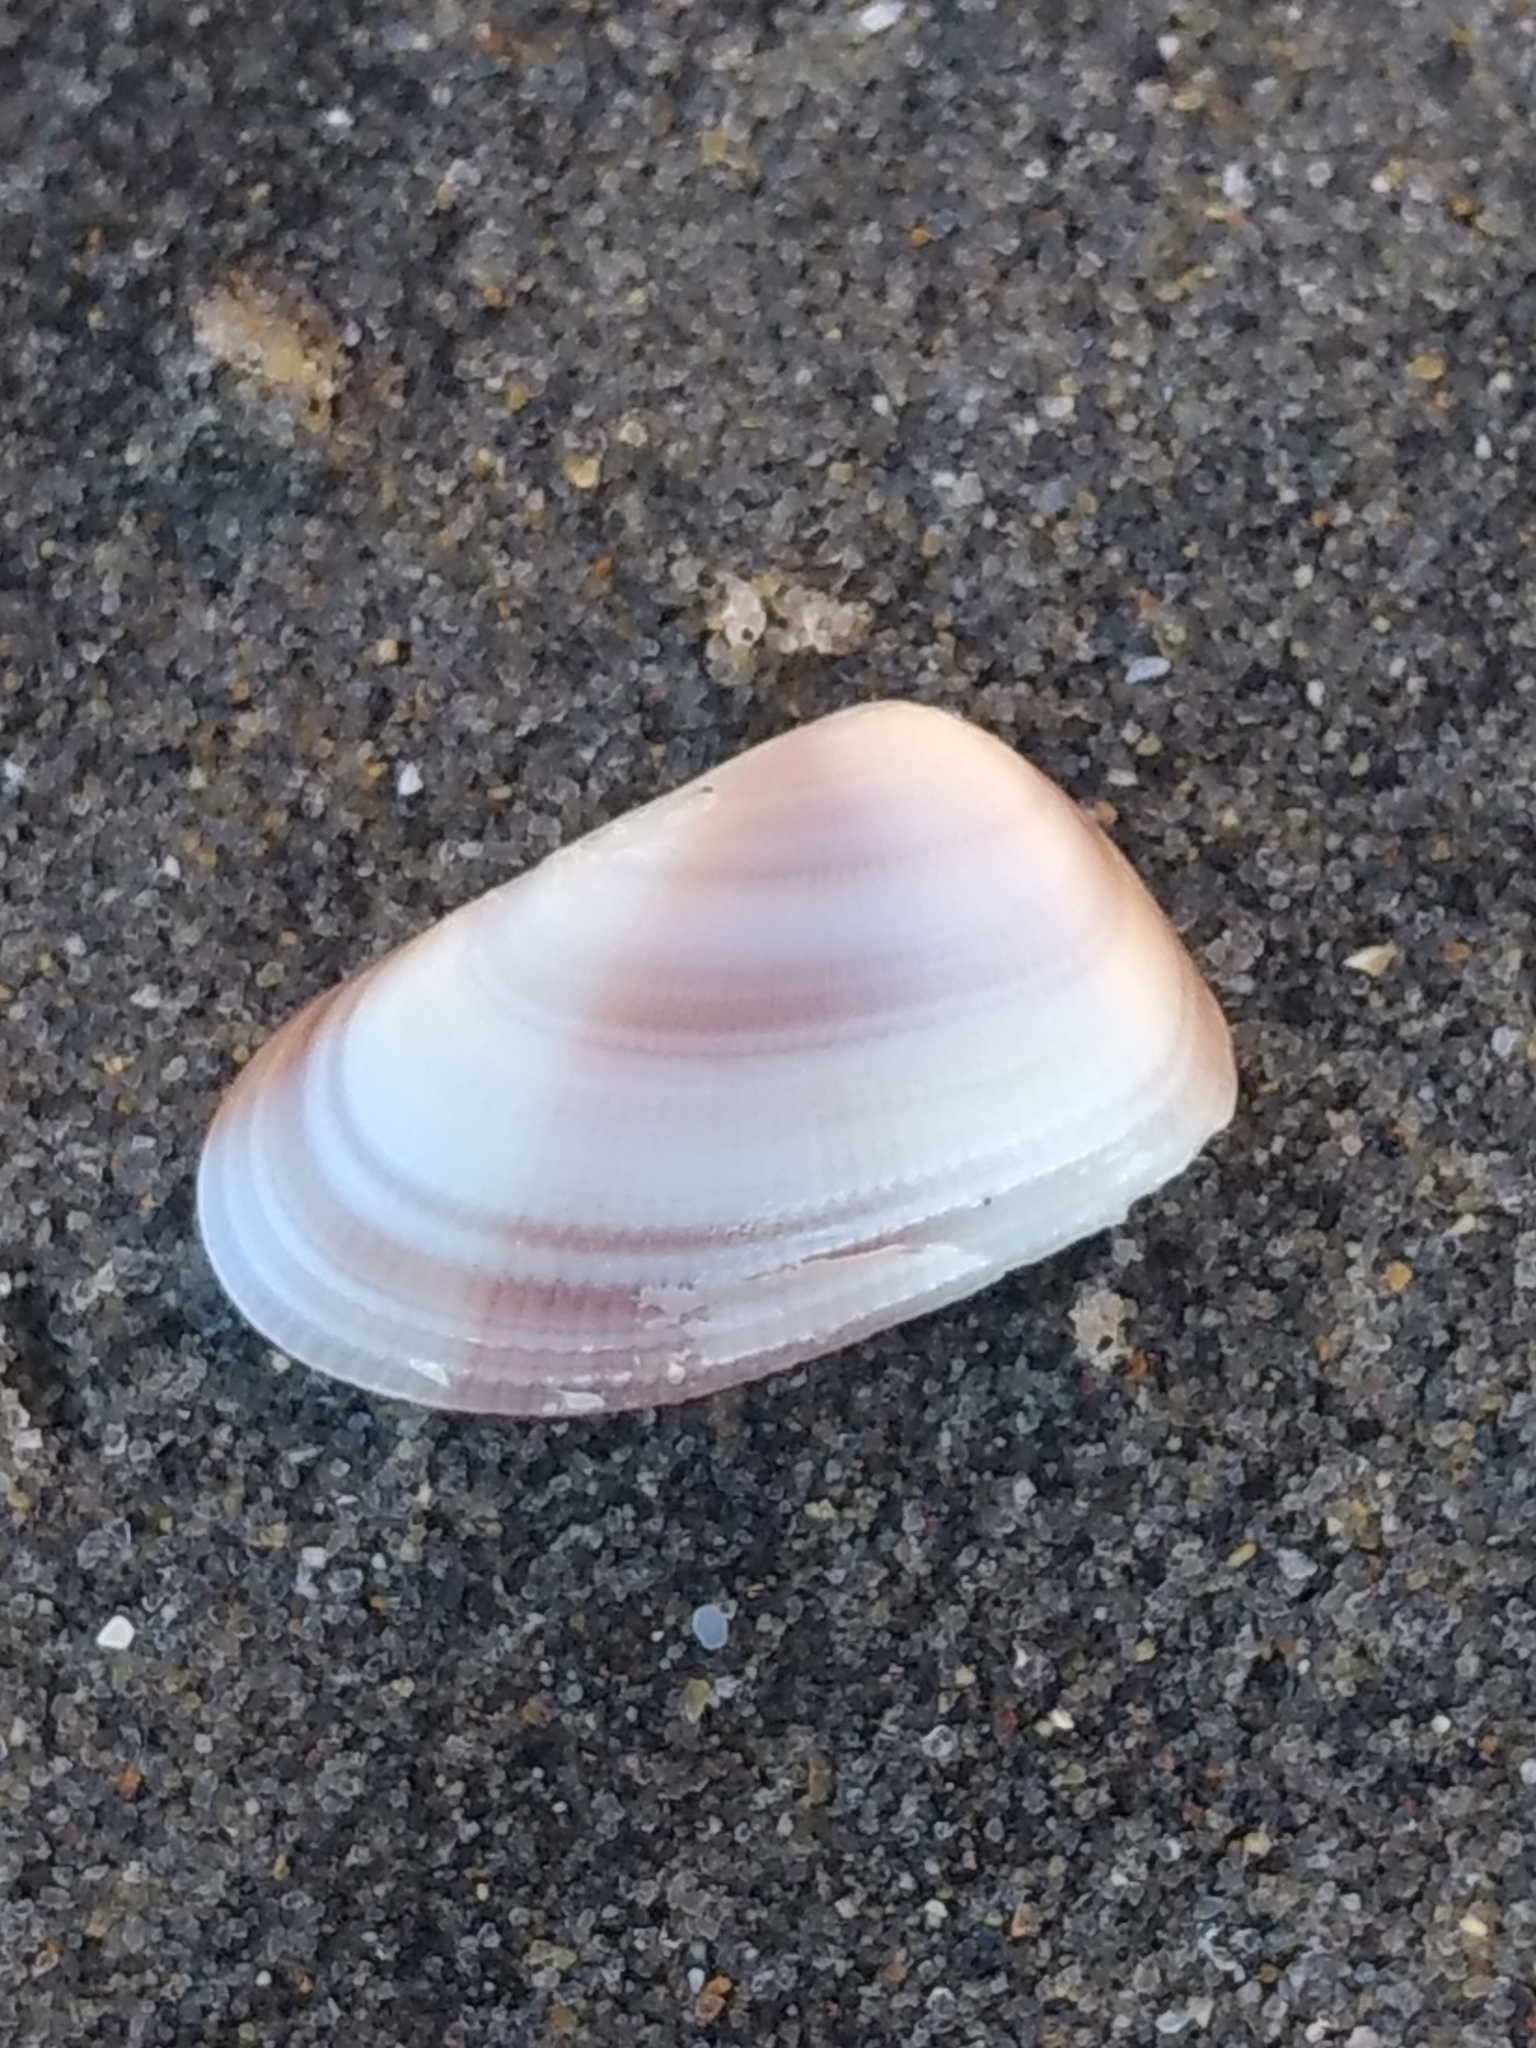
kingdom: Animalia
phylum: Mollusca
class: Bivalvia
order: Cardiida
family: Donacidae
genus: Donax
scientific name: Donax gouldii
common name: Gould beanclam
